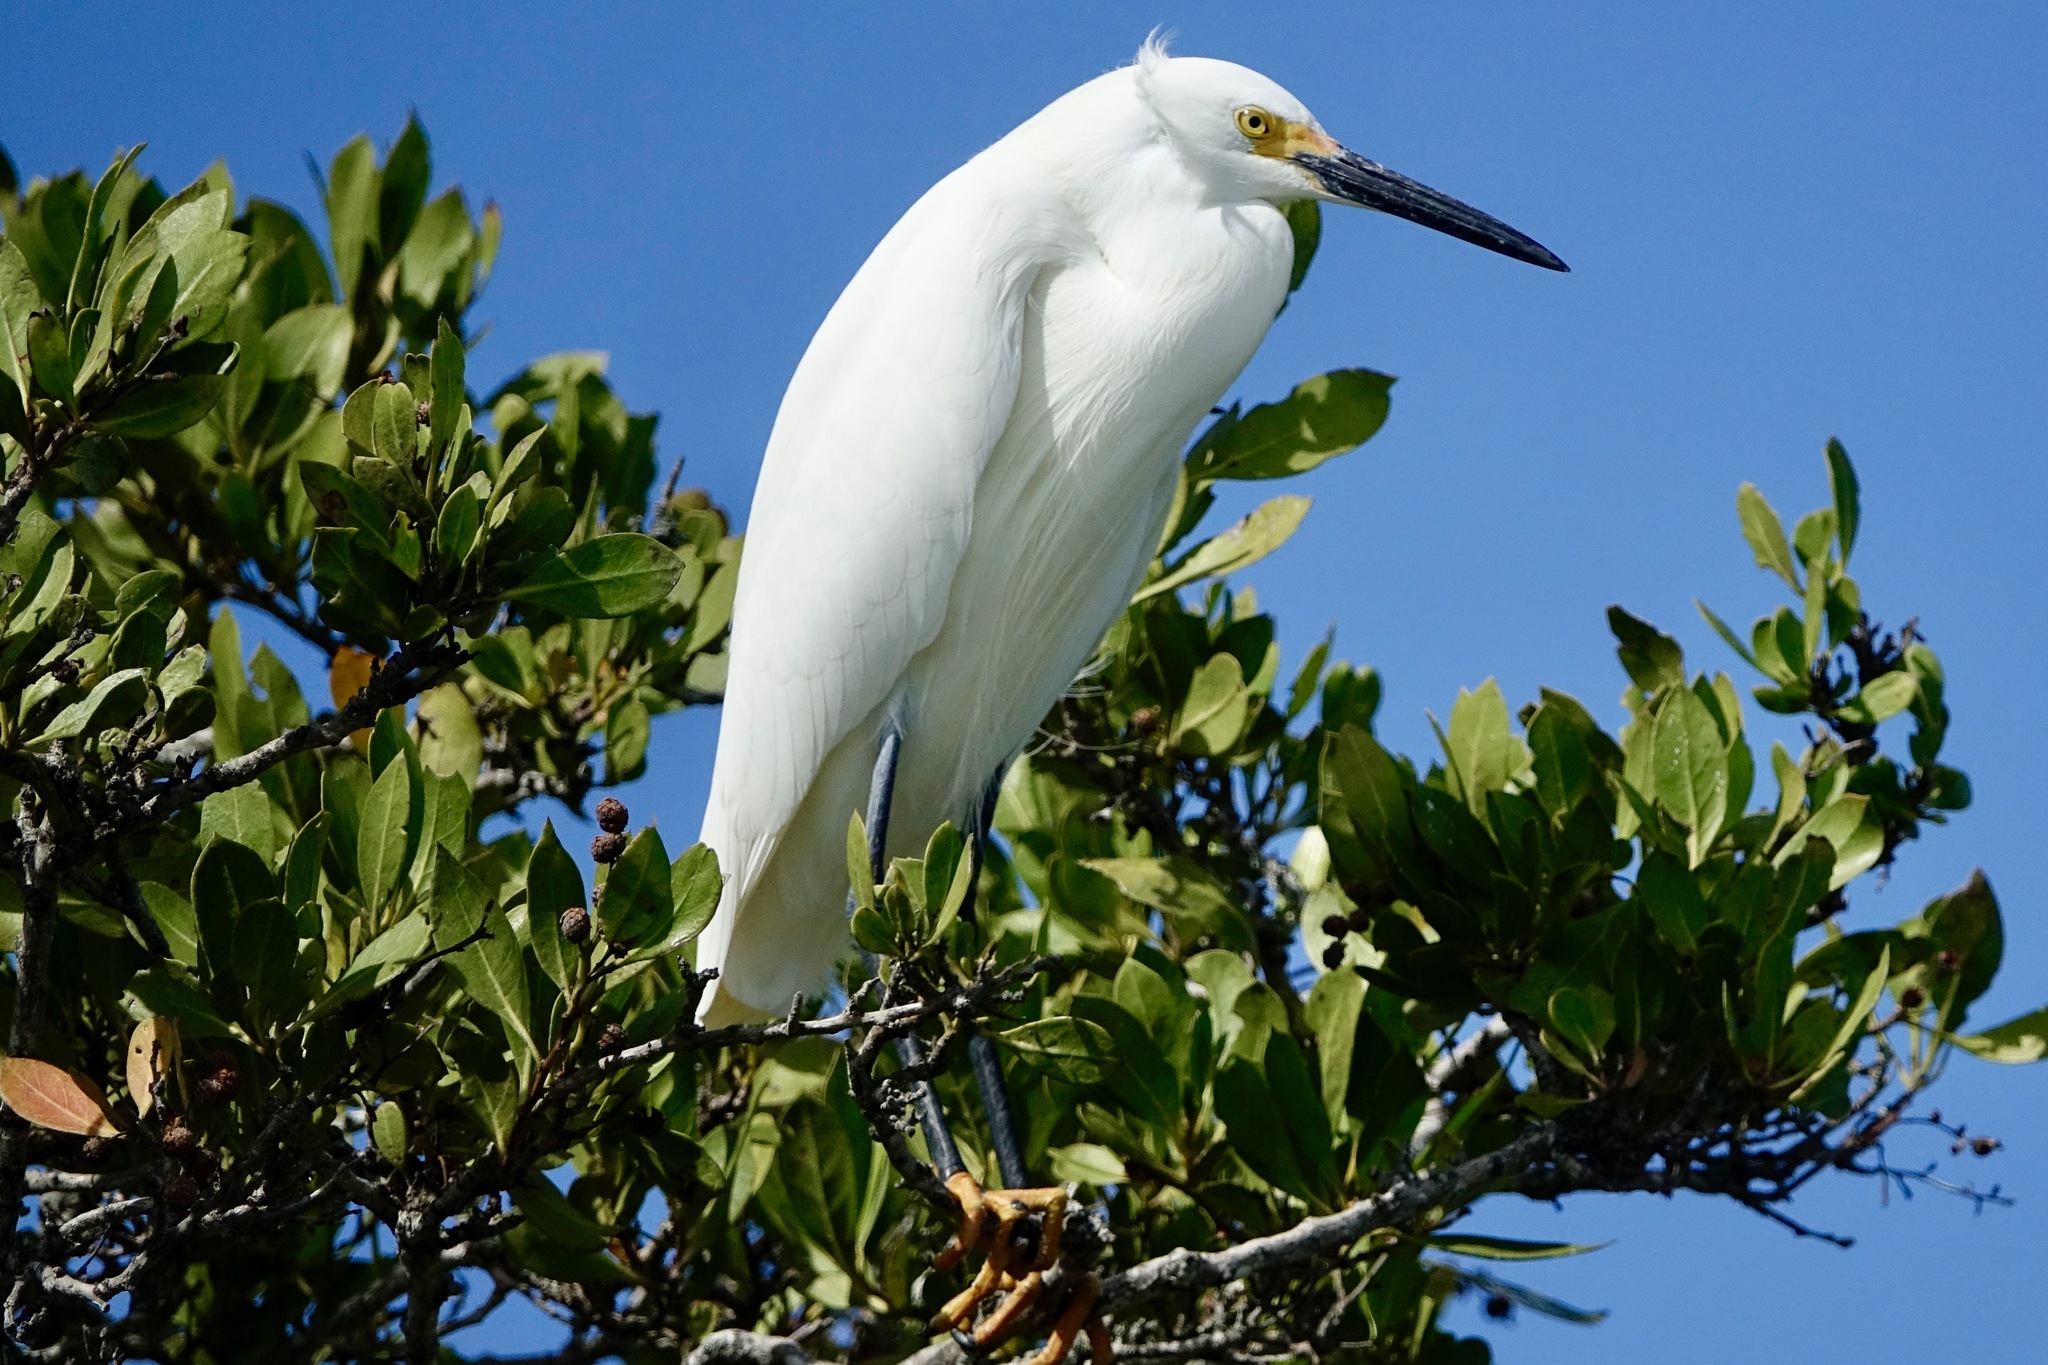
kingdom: Animalia
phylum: Chordata
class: Aves
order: Pelecaniformes
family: Ardeidae
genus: Egretta
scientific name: Egretta thula
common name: Snowy egret
